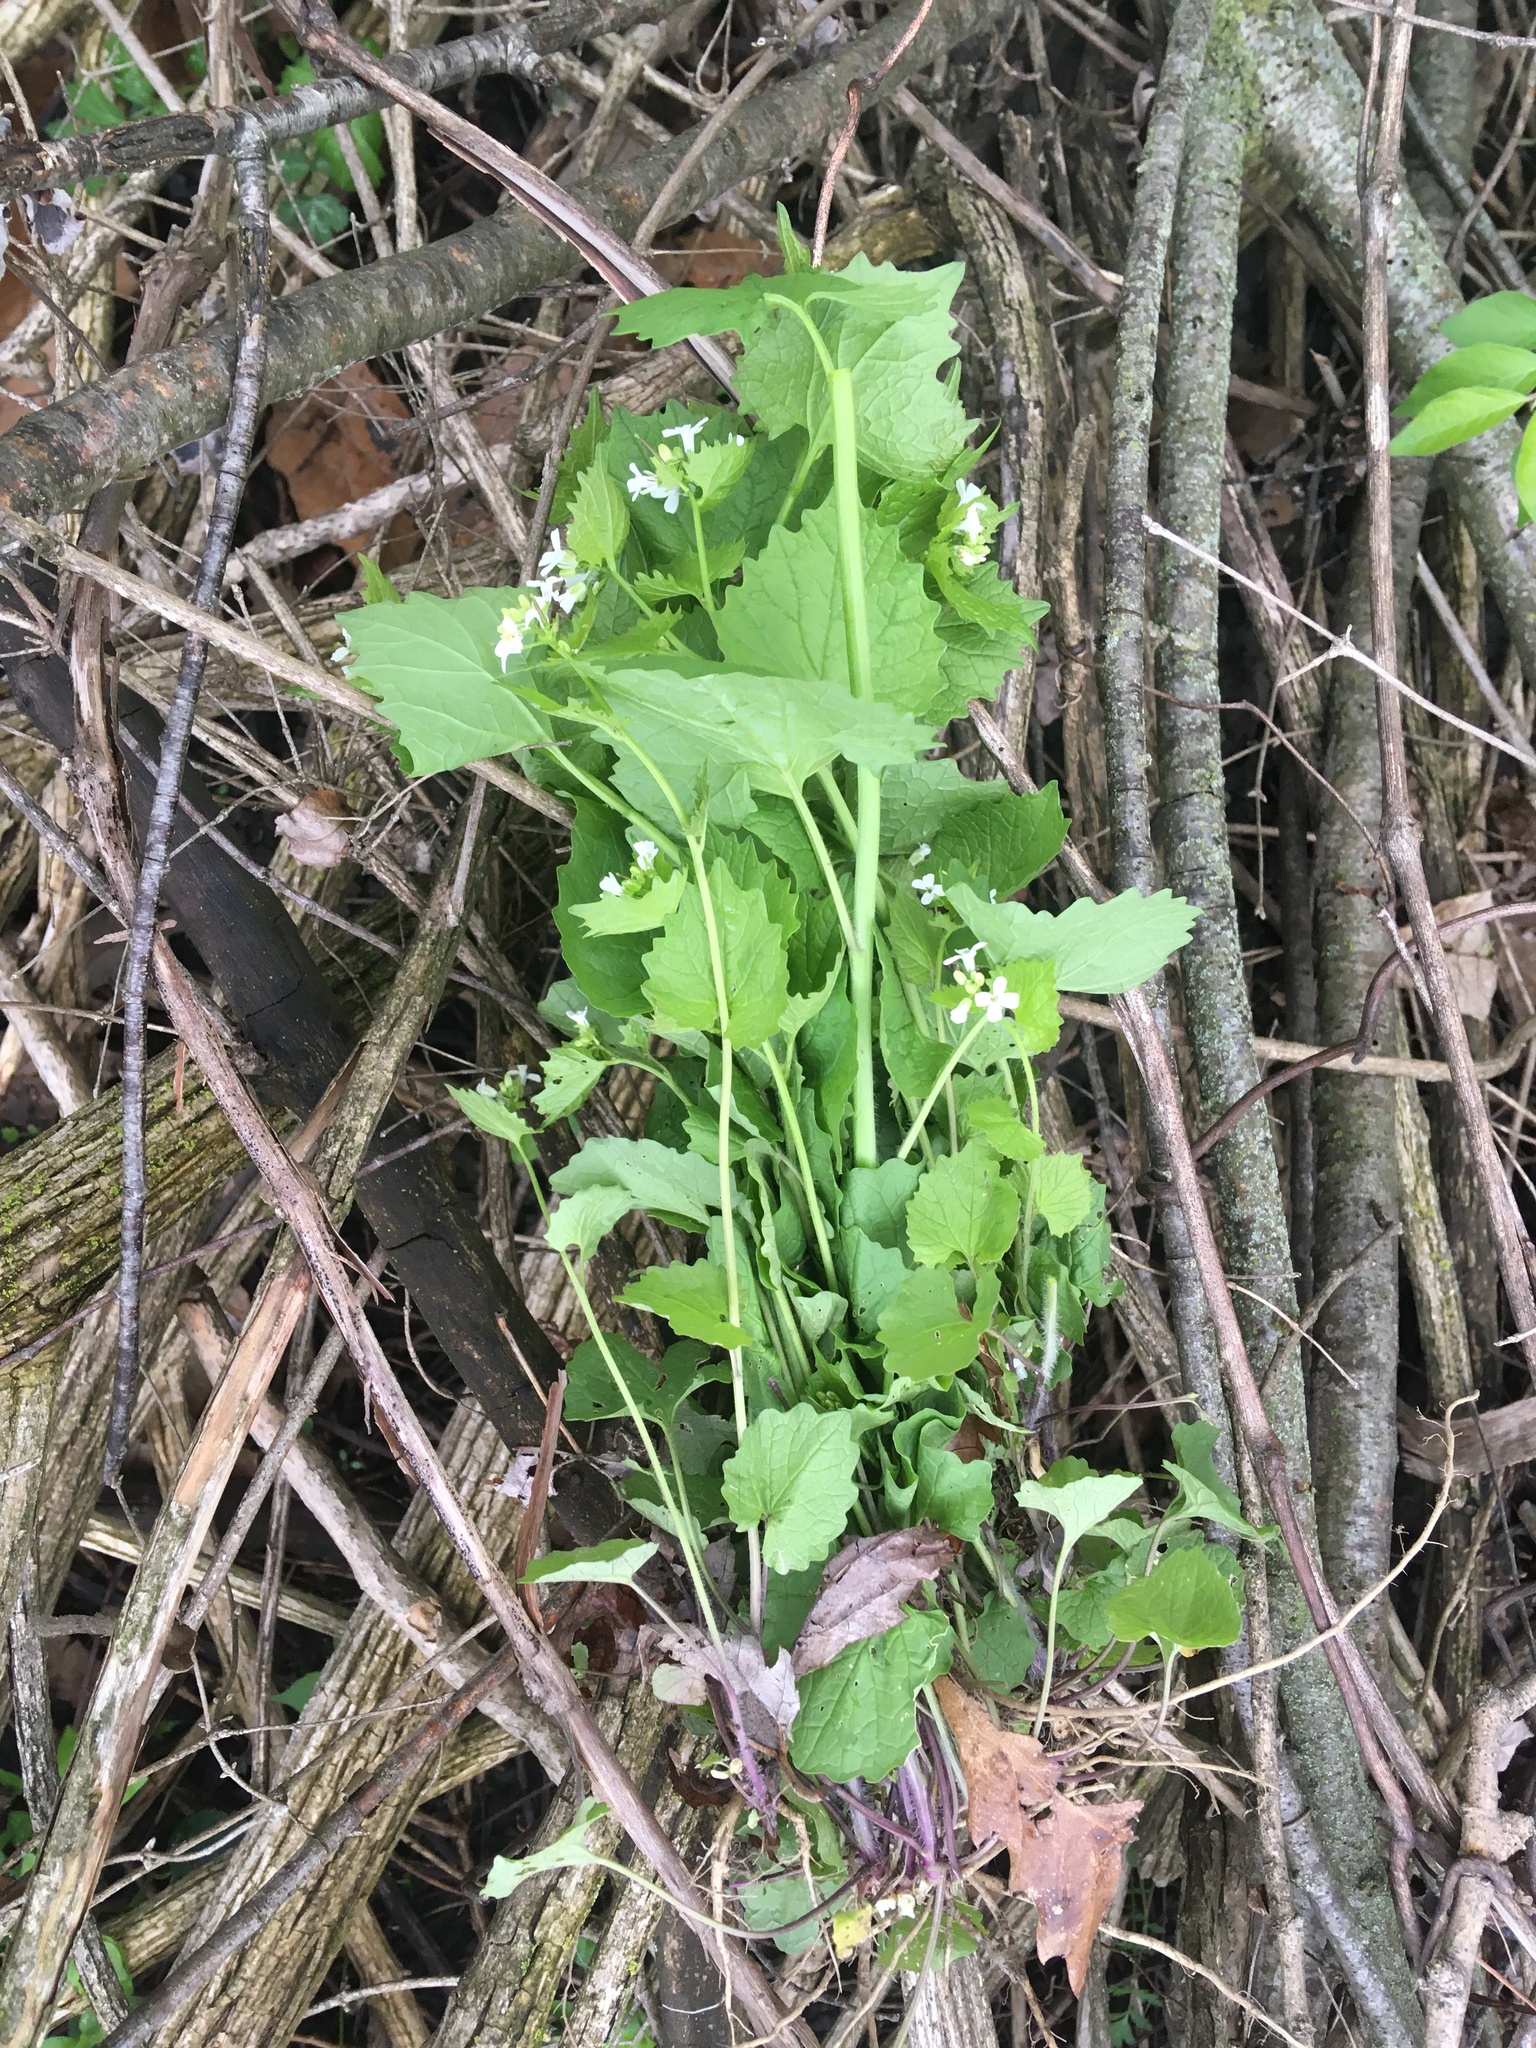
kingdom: Plantae
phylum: Tracheophyta
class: Magnoliopsida
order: Brassicales
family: Brassicaceae
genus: Alliaria
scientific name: Alliaria petiolata
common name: Garlic mustard
